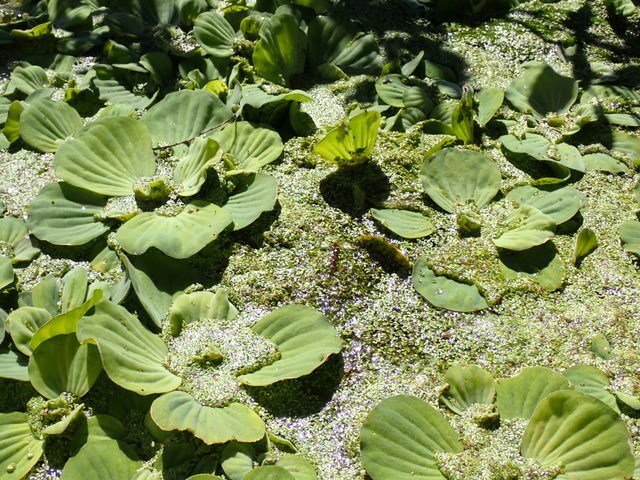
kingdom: Plantae
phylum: Tracheophyta
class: Liliopsida
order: Alismatales
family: Araceae
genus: Pistia
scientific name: Pistia stratiotes
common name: Water lettuce
